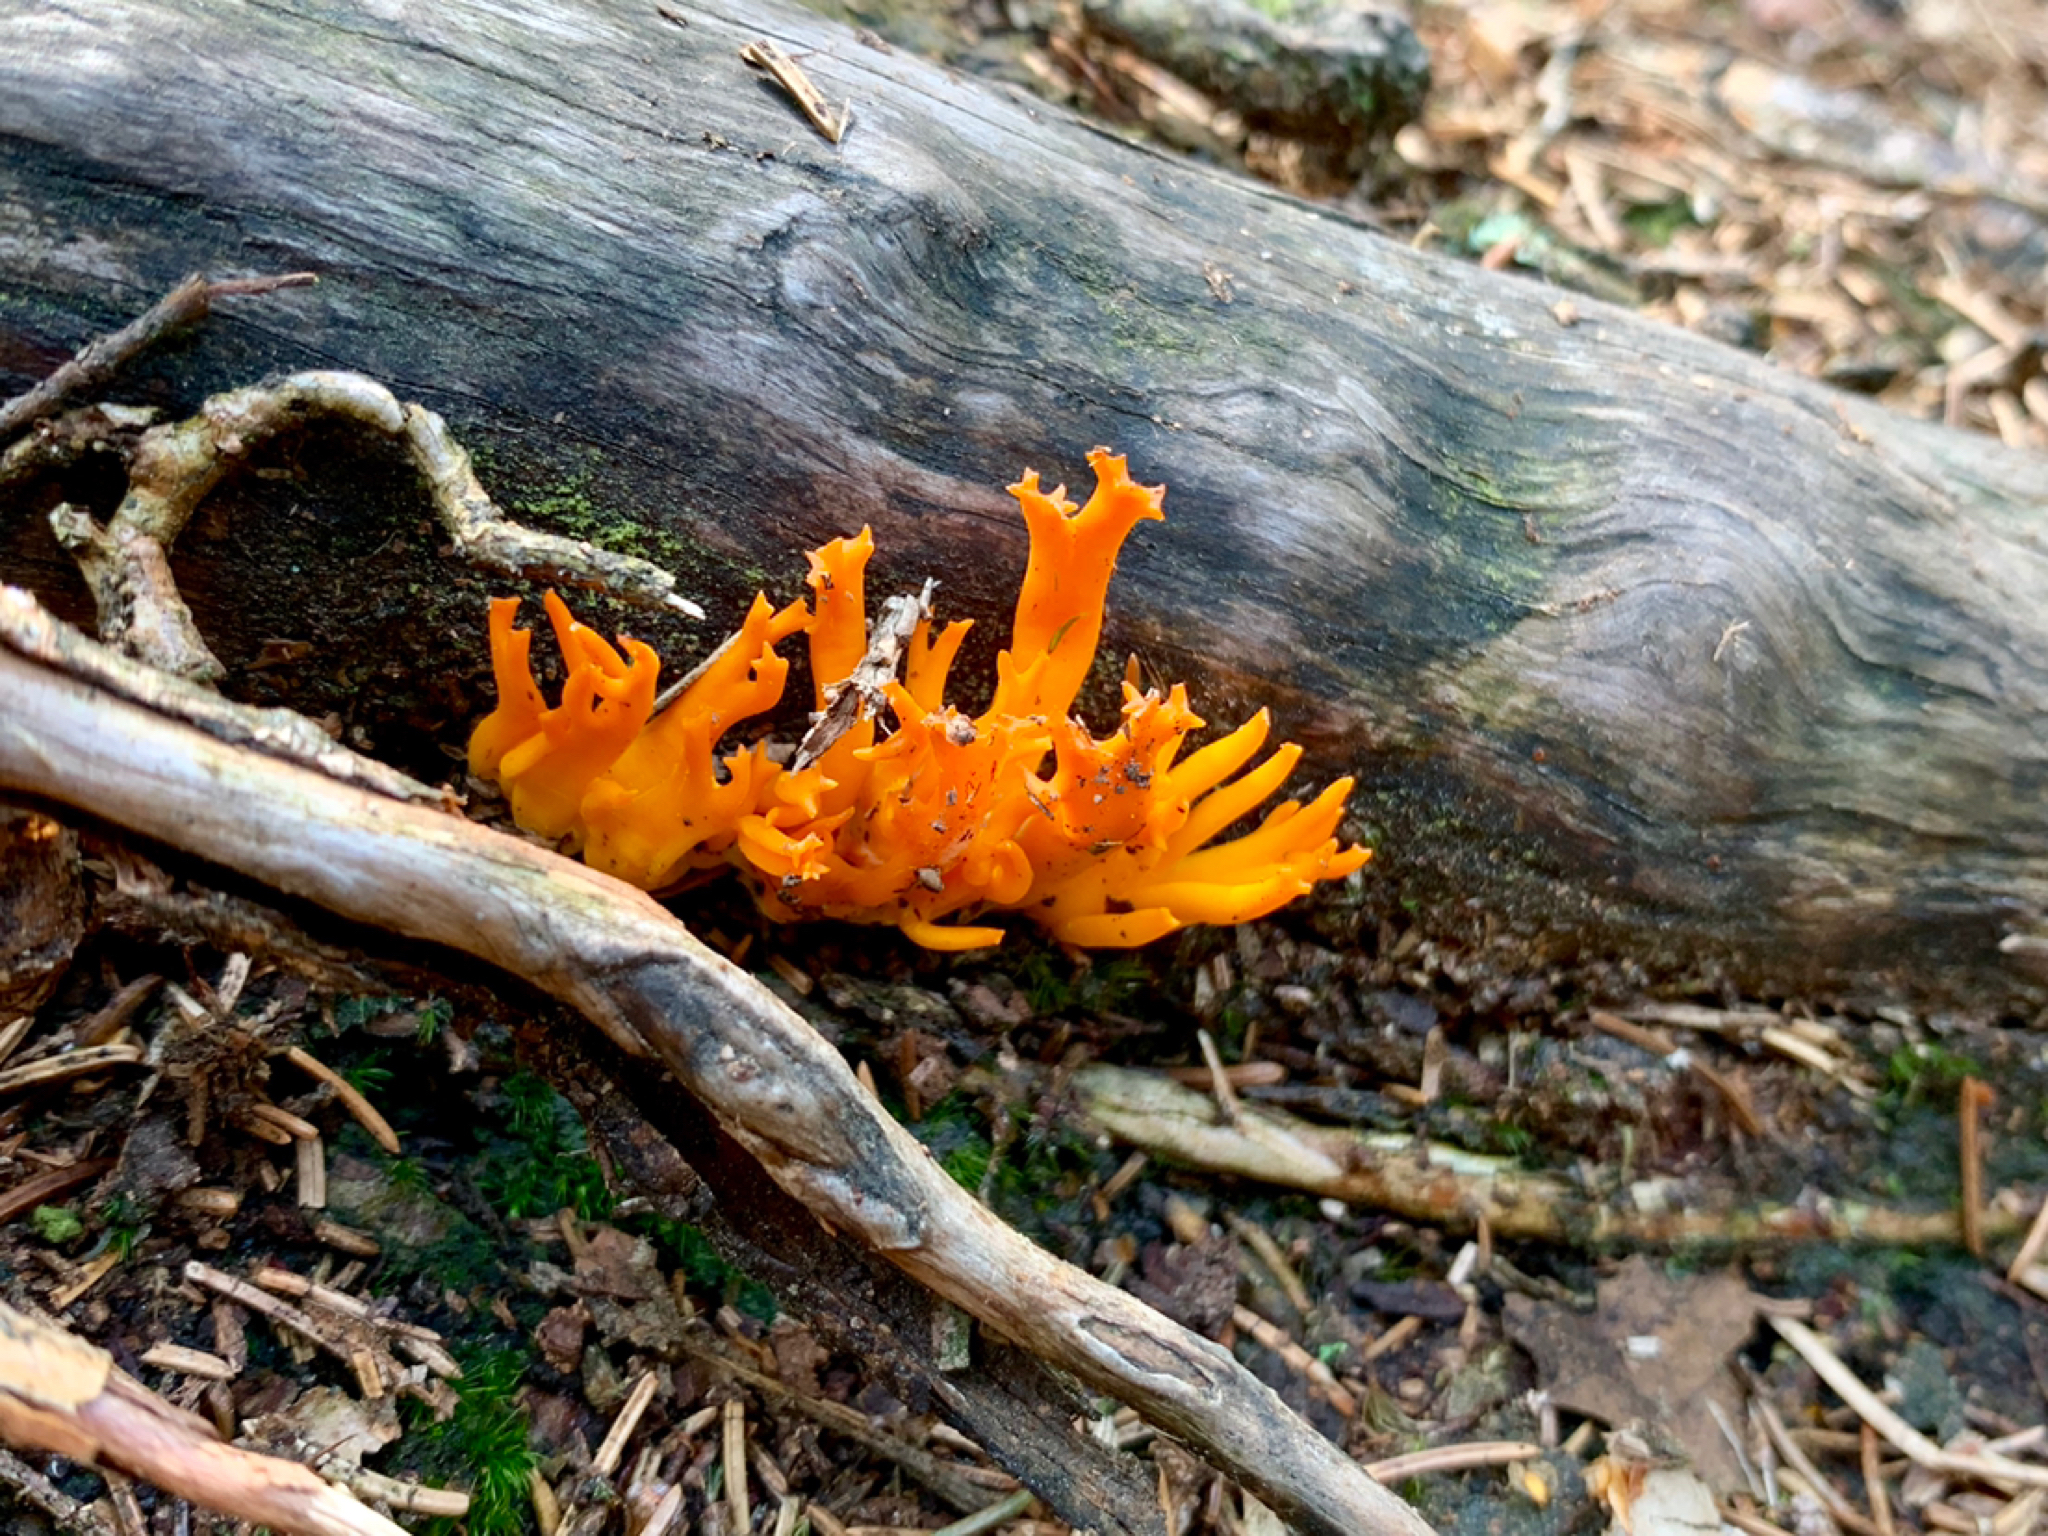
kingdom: Fungi
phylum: Basidiomycota
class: Dacrymycetes
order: Dacrymycetales
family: Dacrymycetaceae
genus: Calocera
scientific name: Calocera viscosa
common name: Yellow stagshorn
